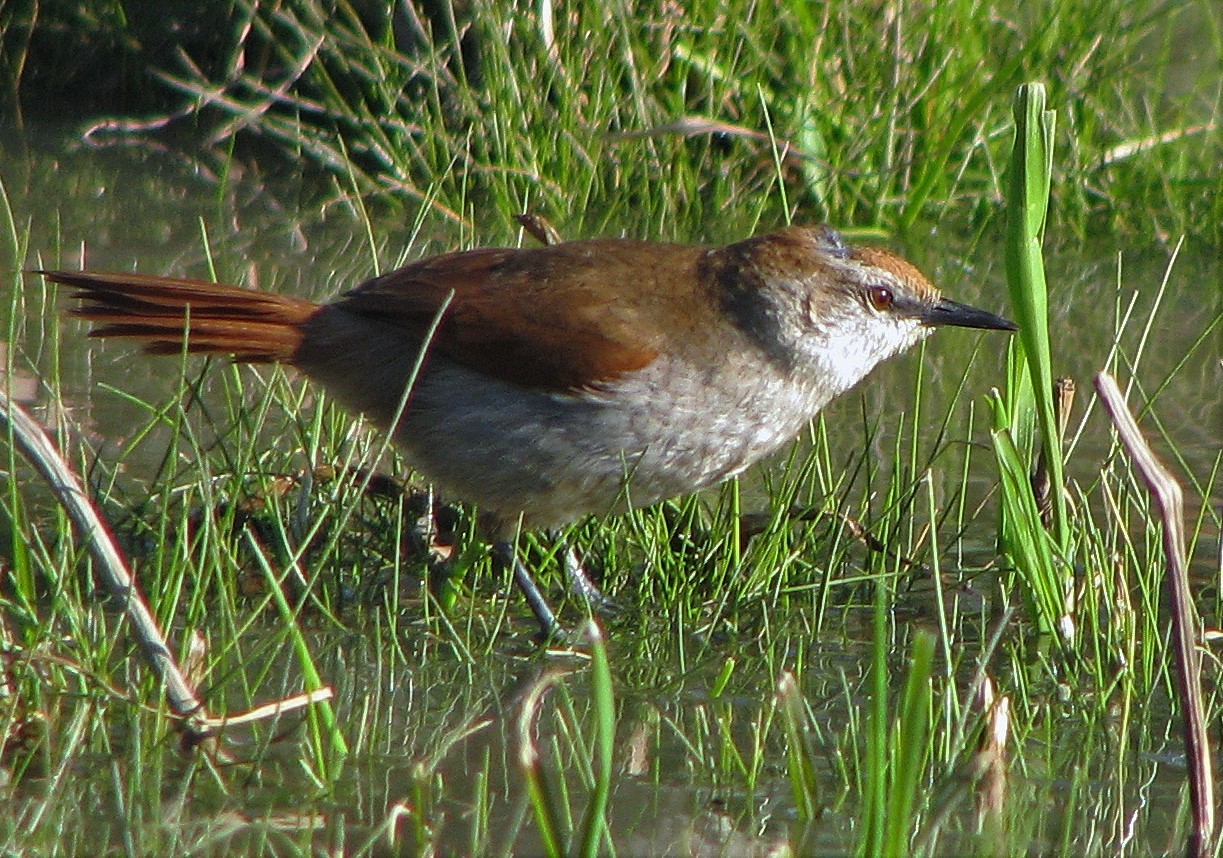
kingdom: Animalia
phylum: Chordata
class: Aves
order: Passeriformes
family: Furnariidae
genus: Certhiaxis
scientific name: Certhiaxis cinnamomeus
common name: Yellow-chinned spinetail
